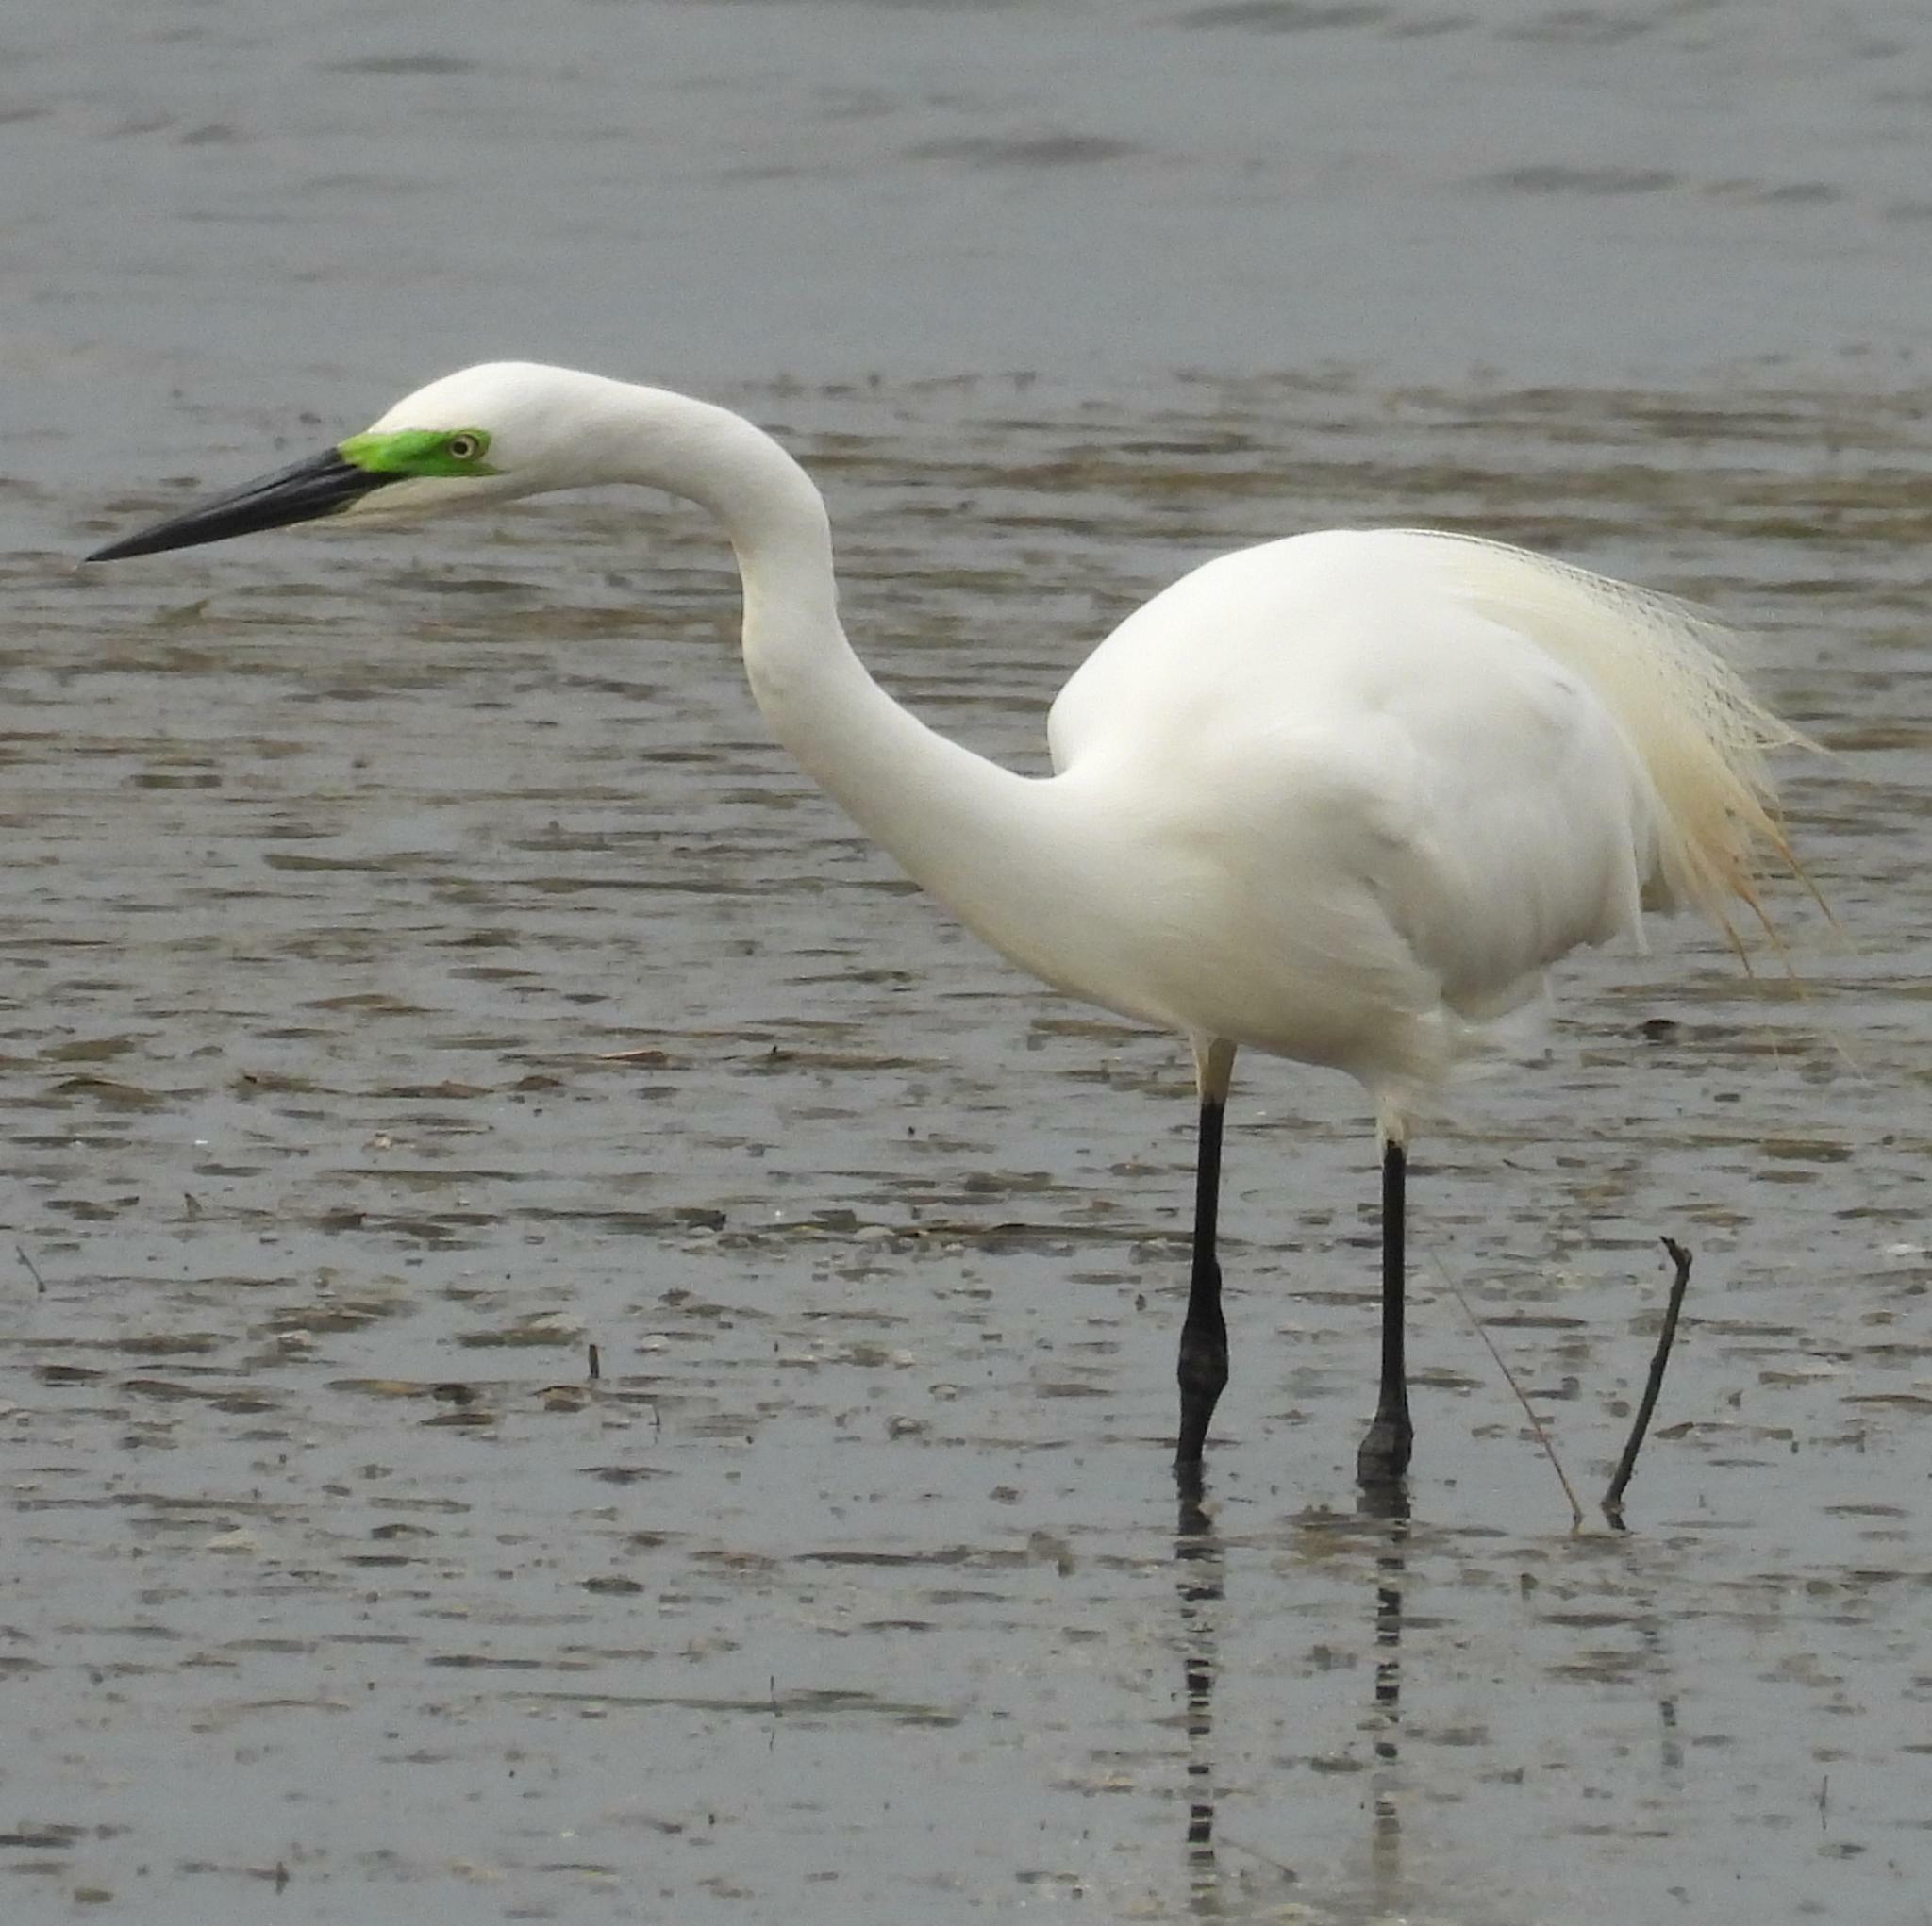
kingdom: Animalia
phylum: Chordata
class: Aves
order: Pelecaniformes
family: Ardeidae
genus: Ardea
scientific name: Ardea alba
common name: Great egret
